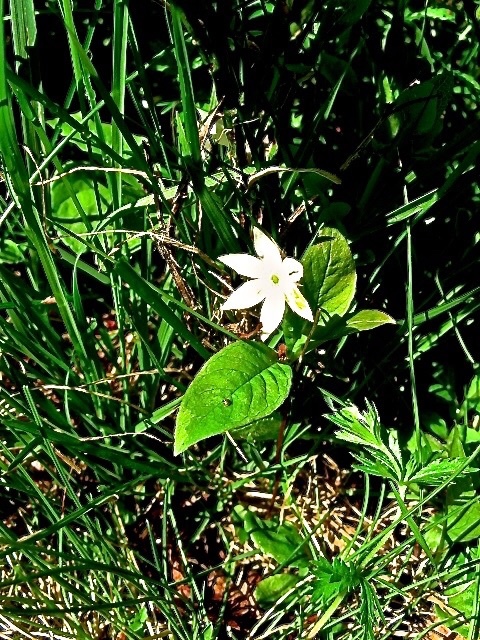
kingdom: Plantae
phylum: Tracheophyta
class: Magnoliopsida
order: Ericales
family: Primulaceae
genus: Lysimachia
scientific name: Lysimachia europaea
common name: Arctic starflower
